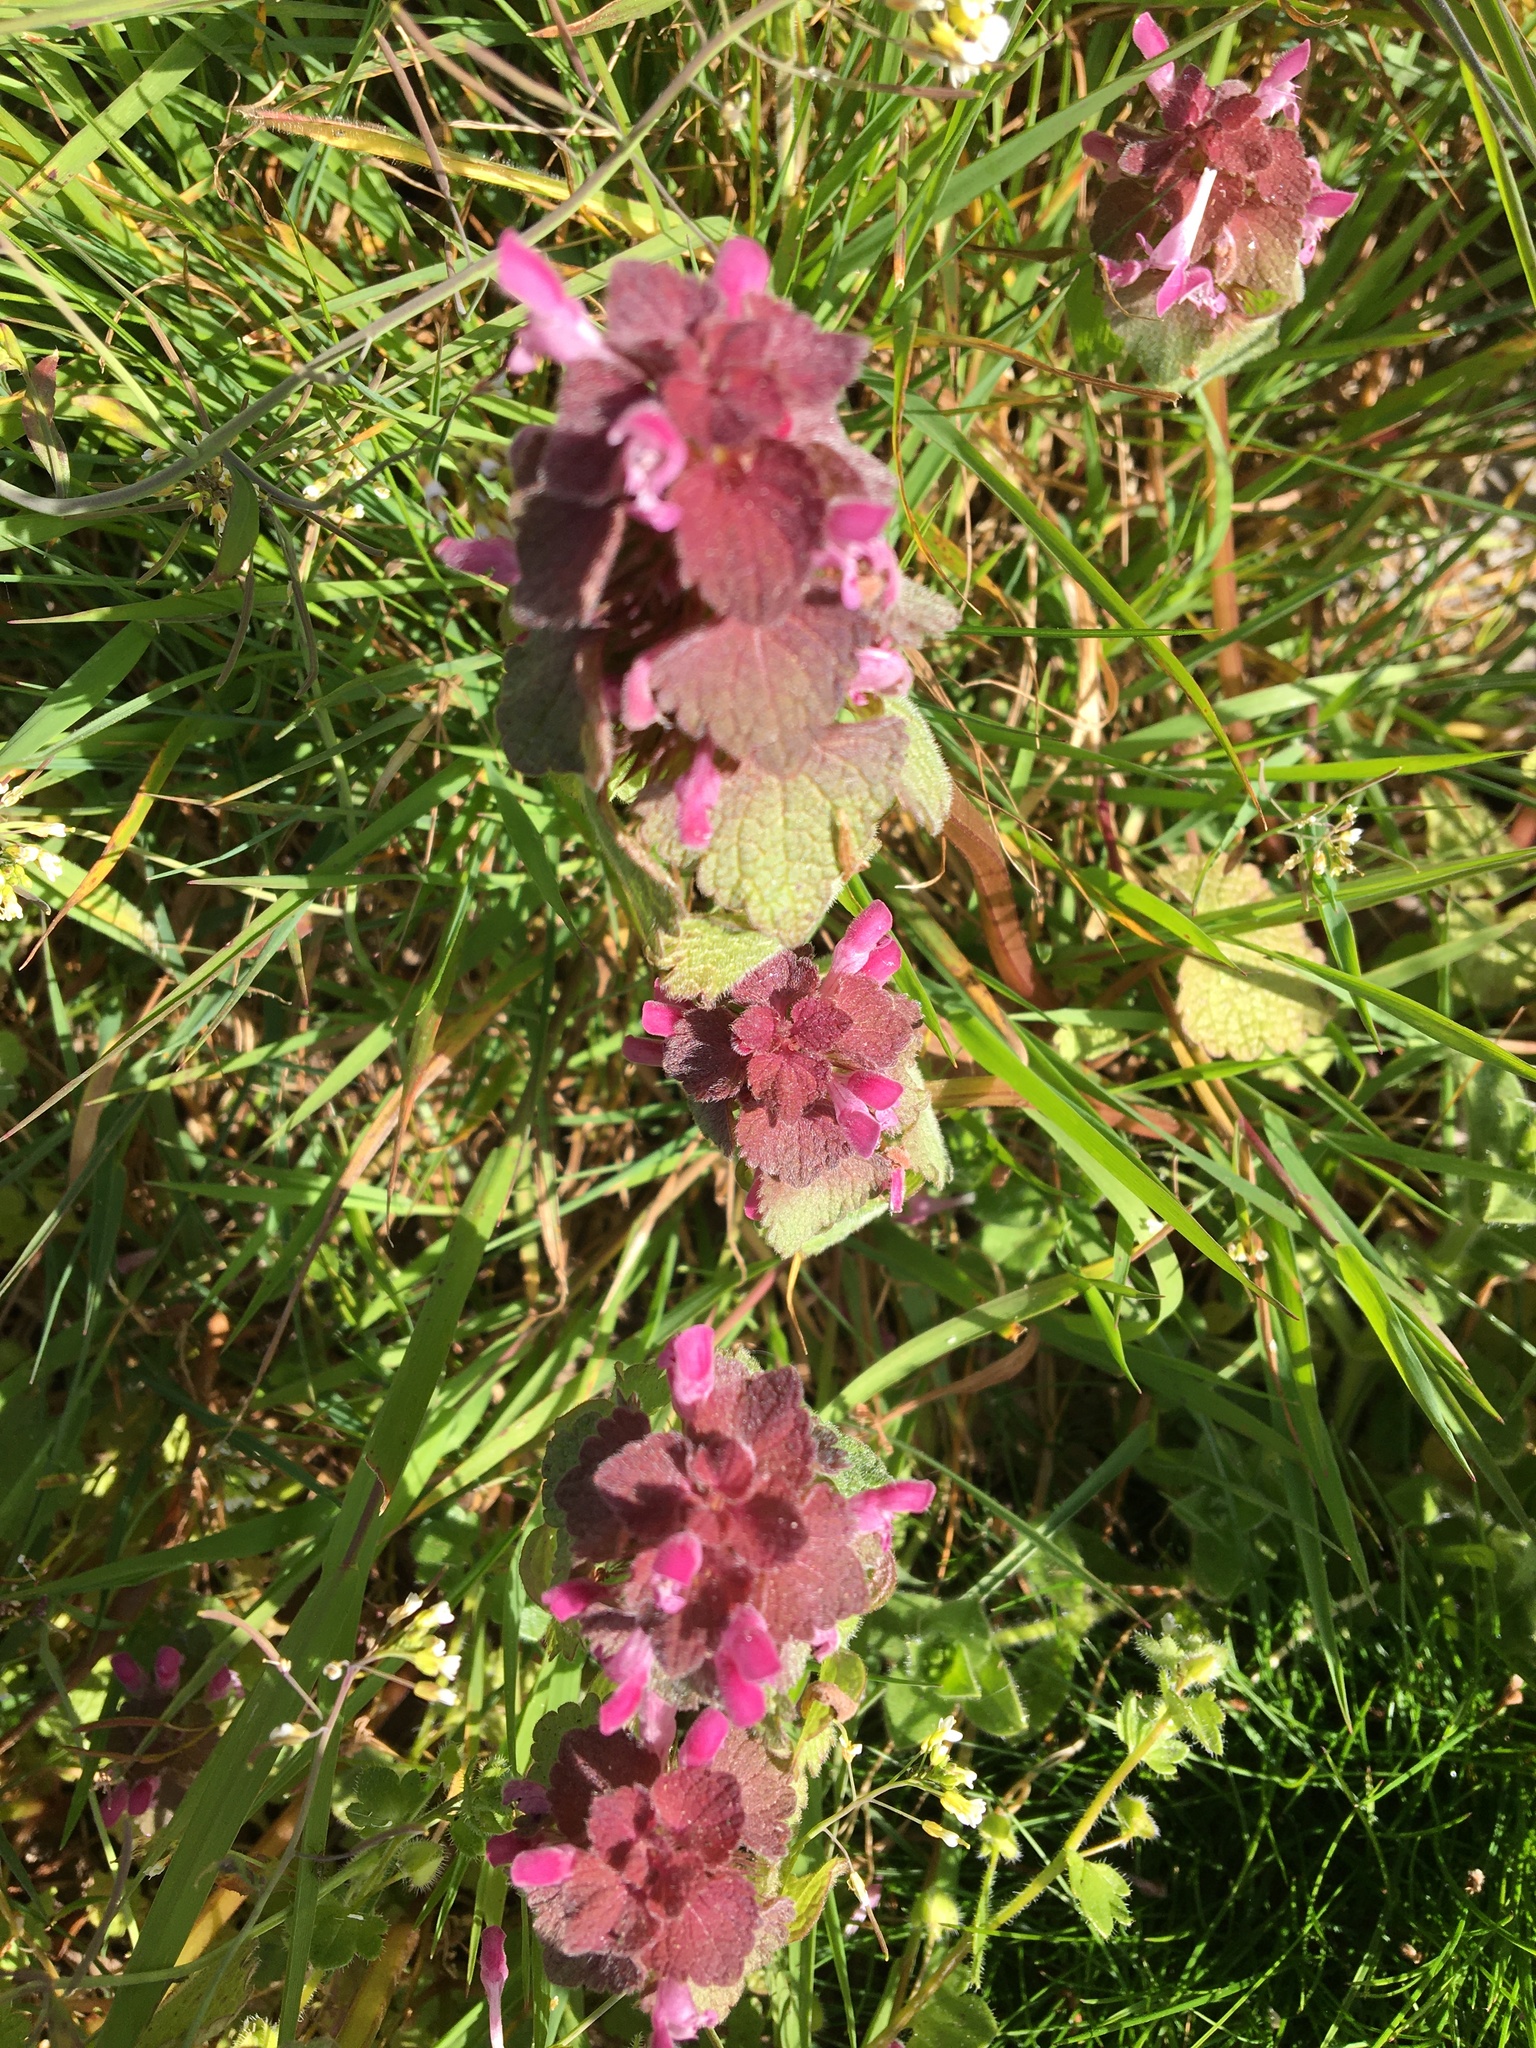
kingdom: Plantae
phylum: Tracheophyta
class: Magnoliopsida
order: Lamiales
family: Lamiaceae
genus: Lamium
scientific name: Lamium purpureum
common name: Red dead-nettle
